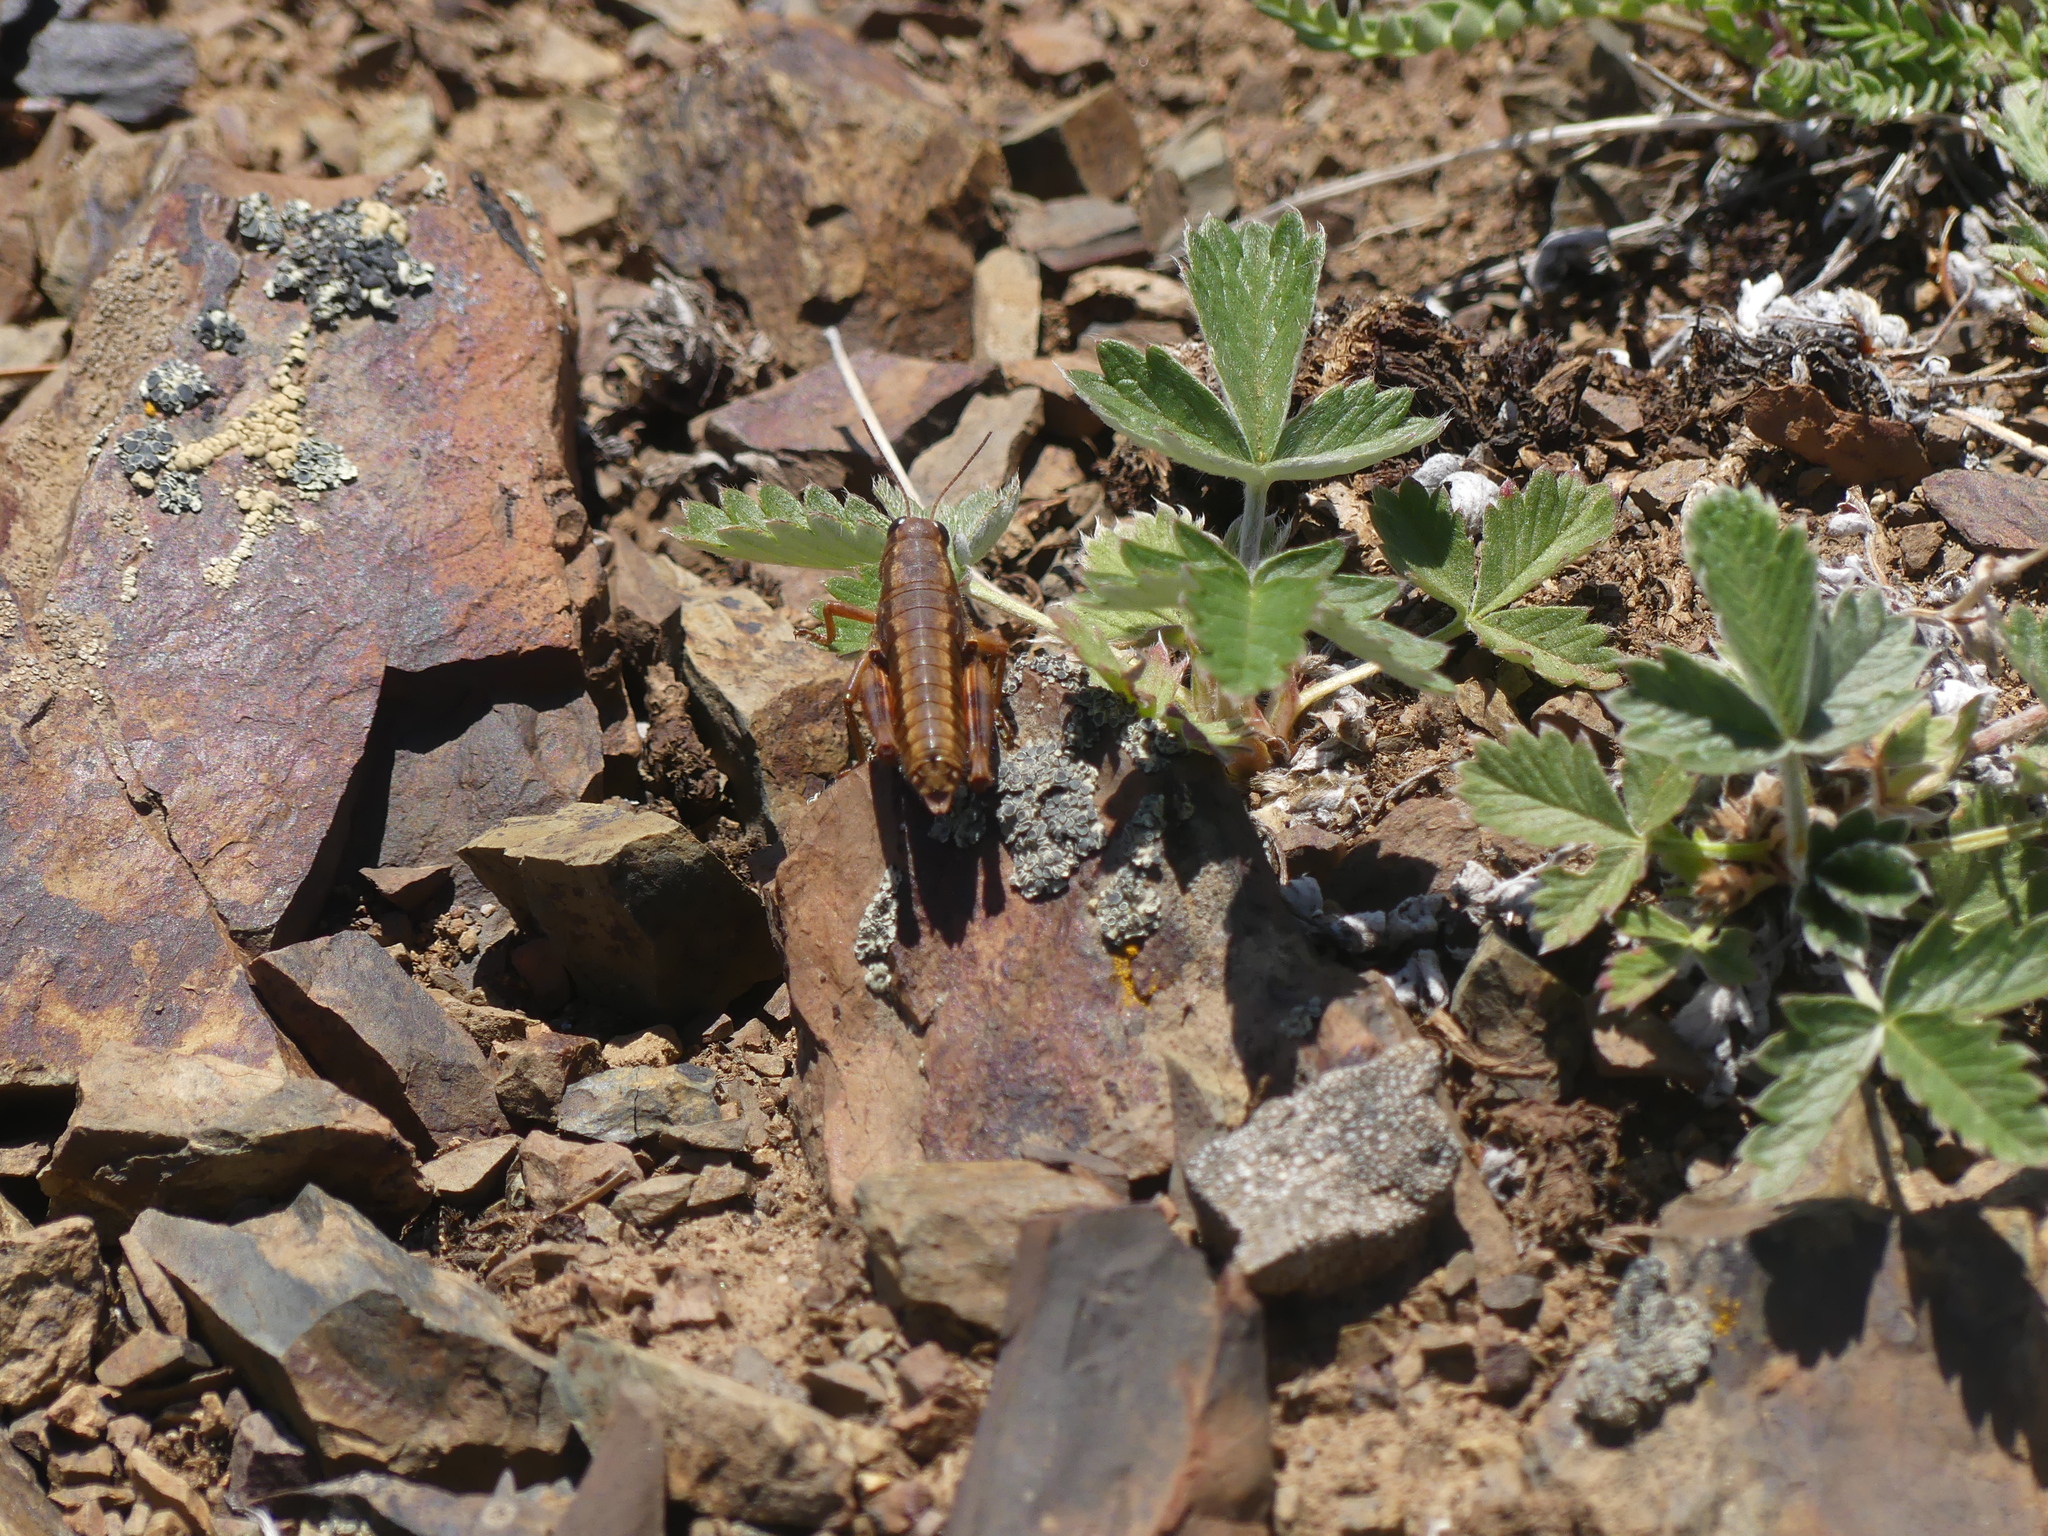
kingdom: Animalia
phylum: Arthropoda
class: Insecta
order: Orthoptera
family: Acrididae
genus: Buckellacris
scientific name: Buckellacris chilcotinae
